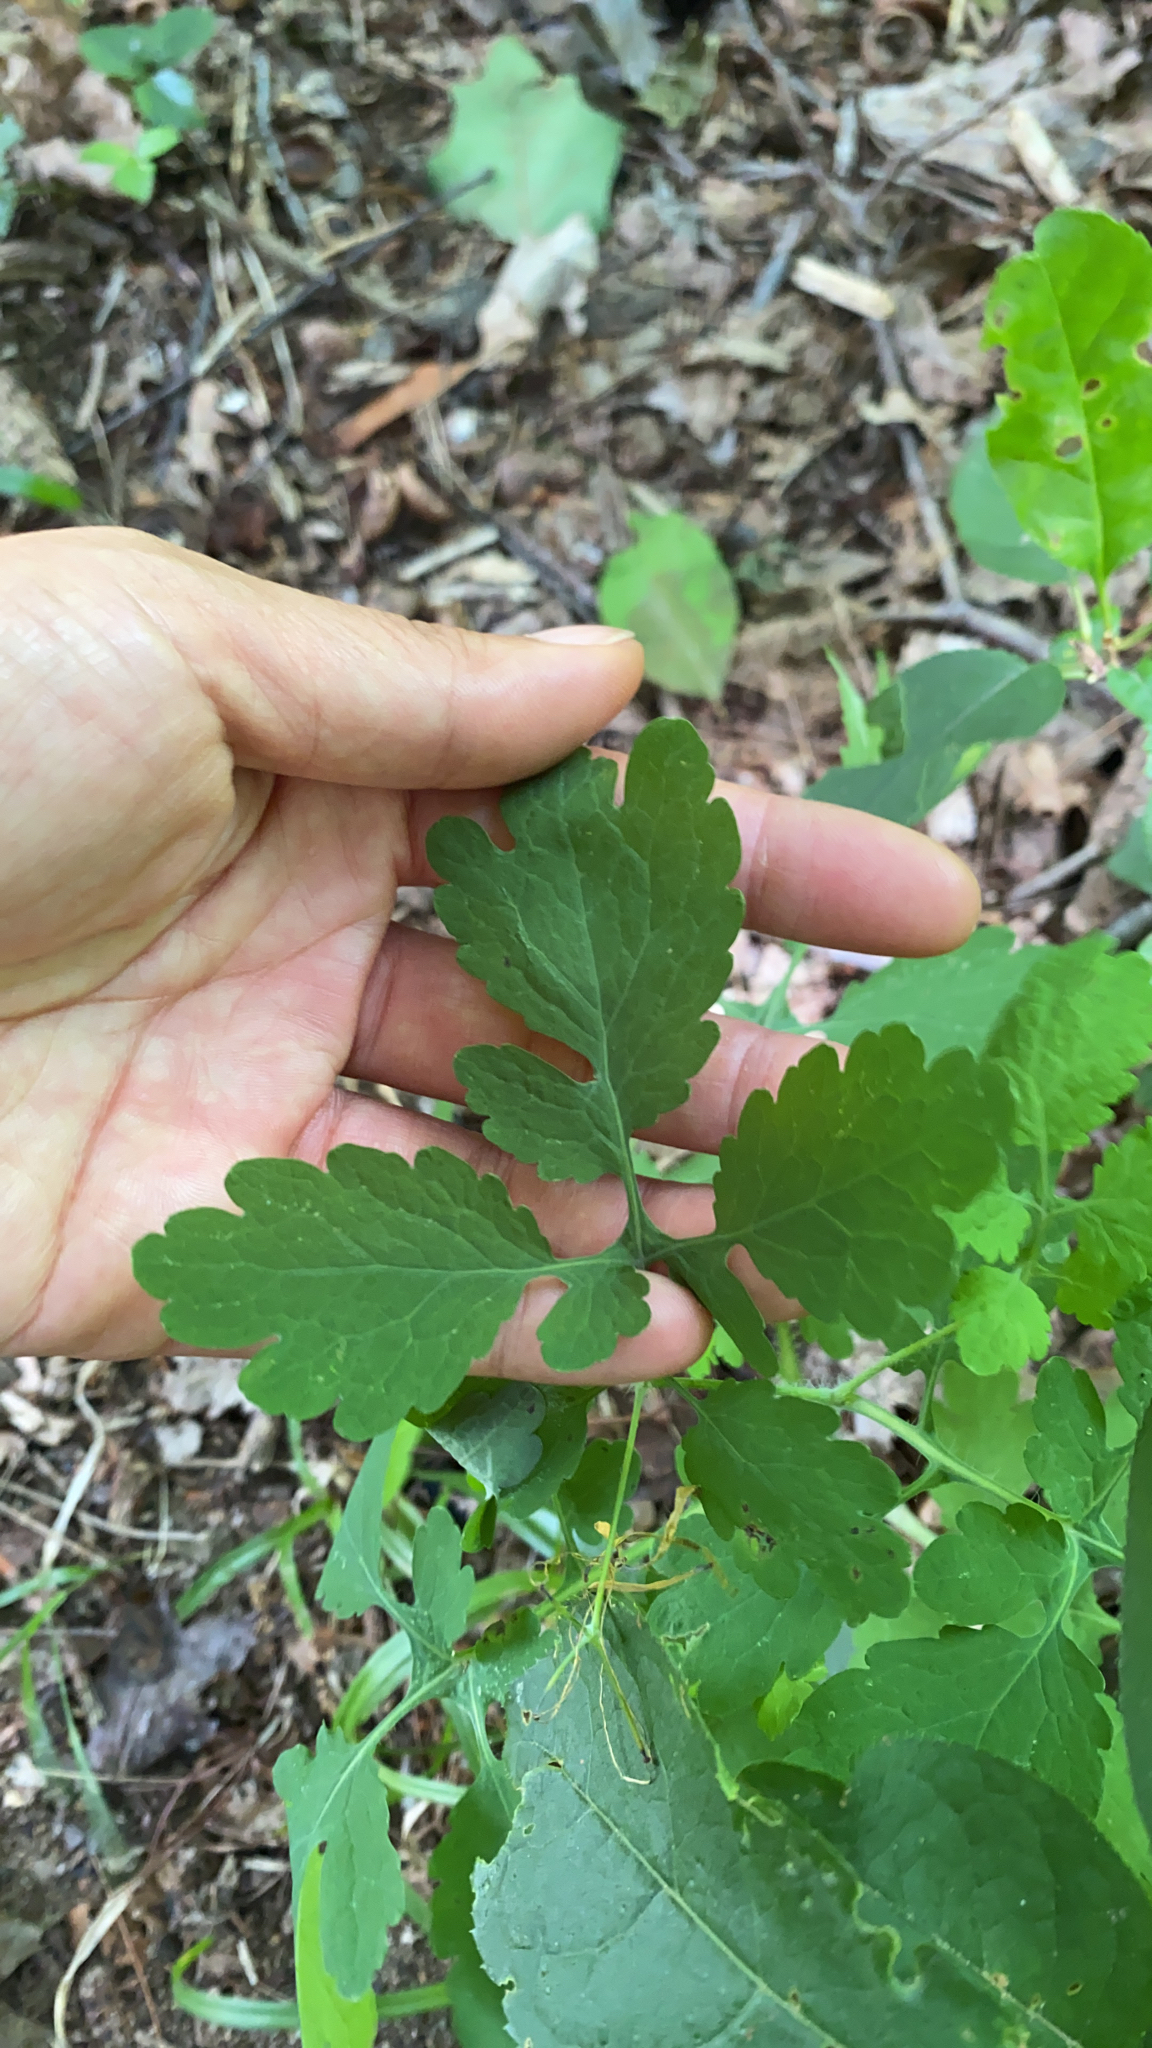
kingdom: Plantae
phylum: Tracheophyta
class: Magnoliopsida
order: Ranunculales
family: Papaveraceae
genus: Chelidonium
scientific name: Chelidonium majus
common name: Greater celandine
